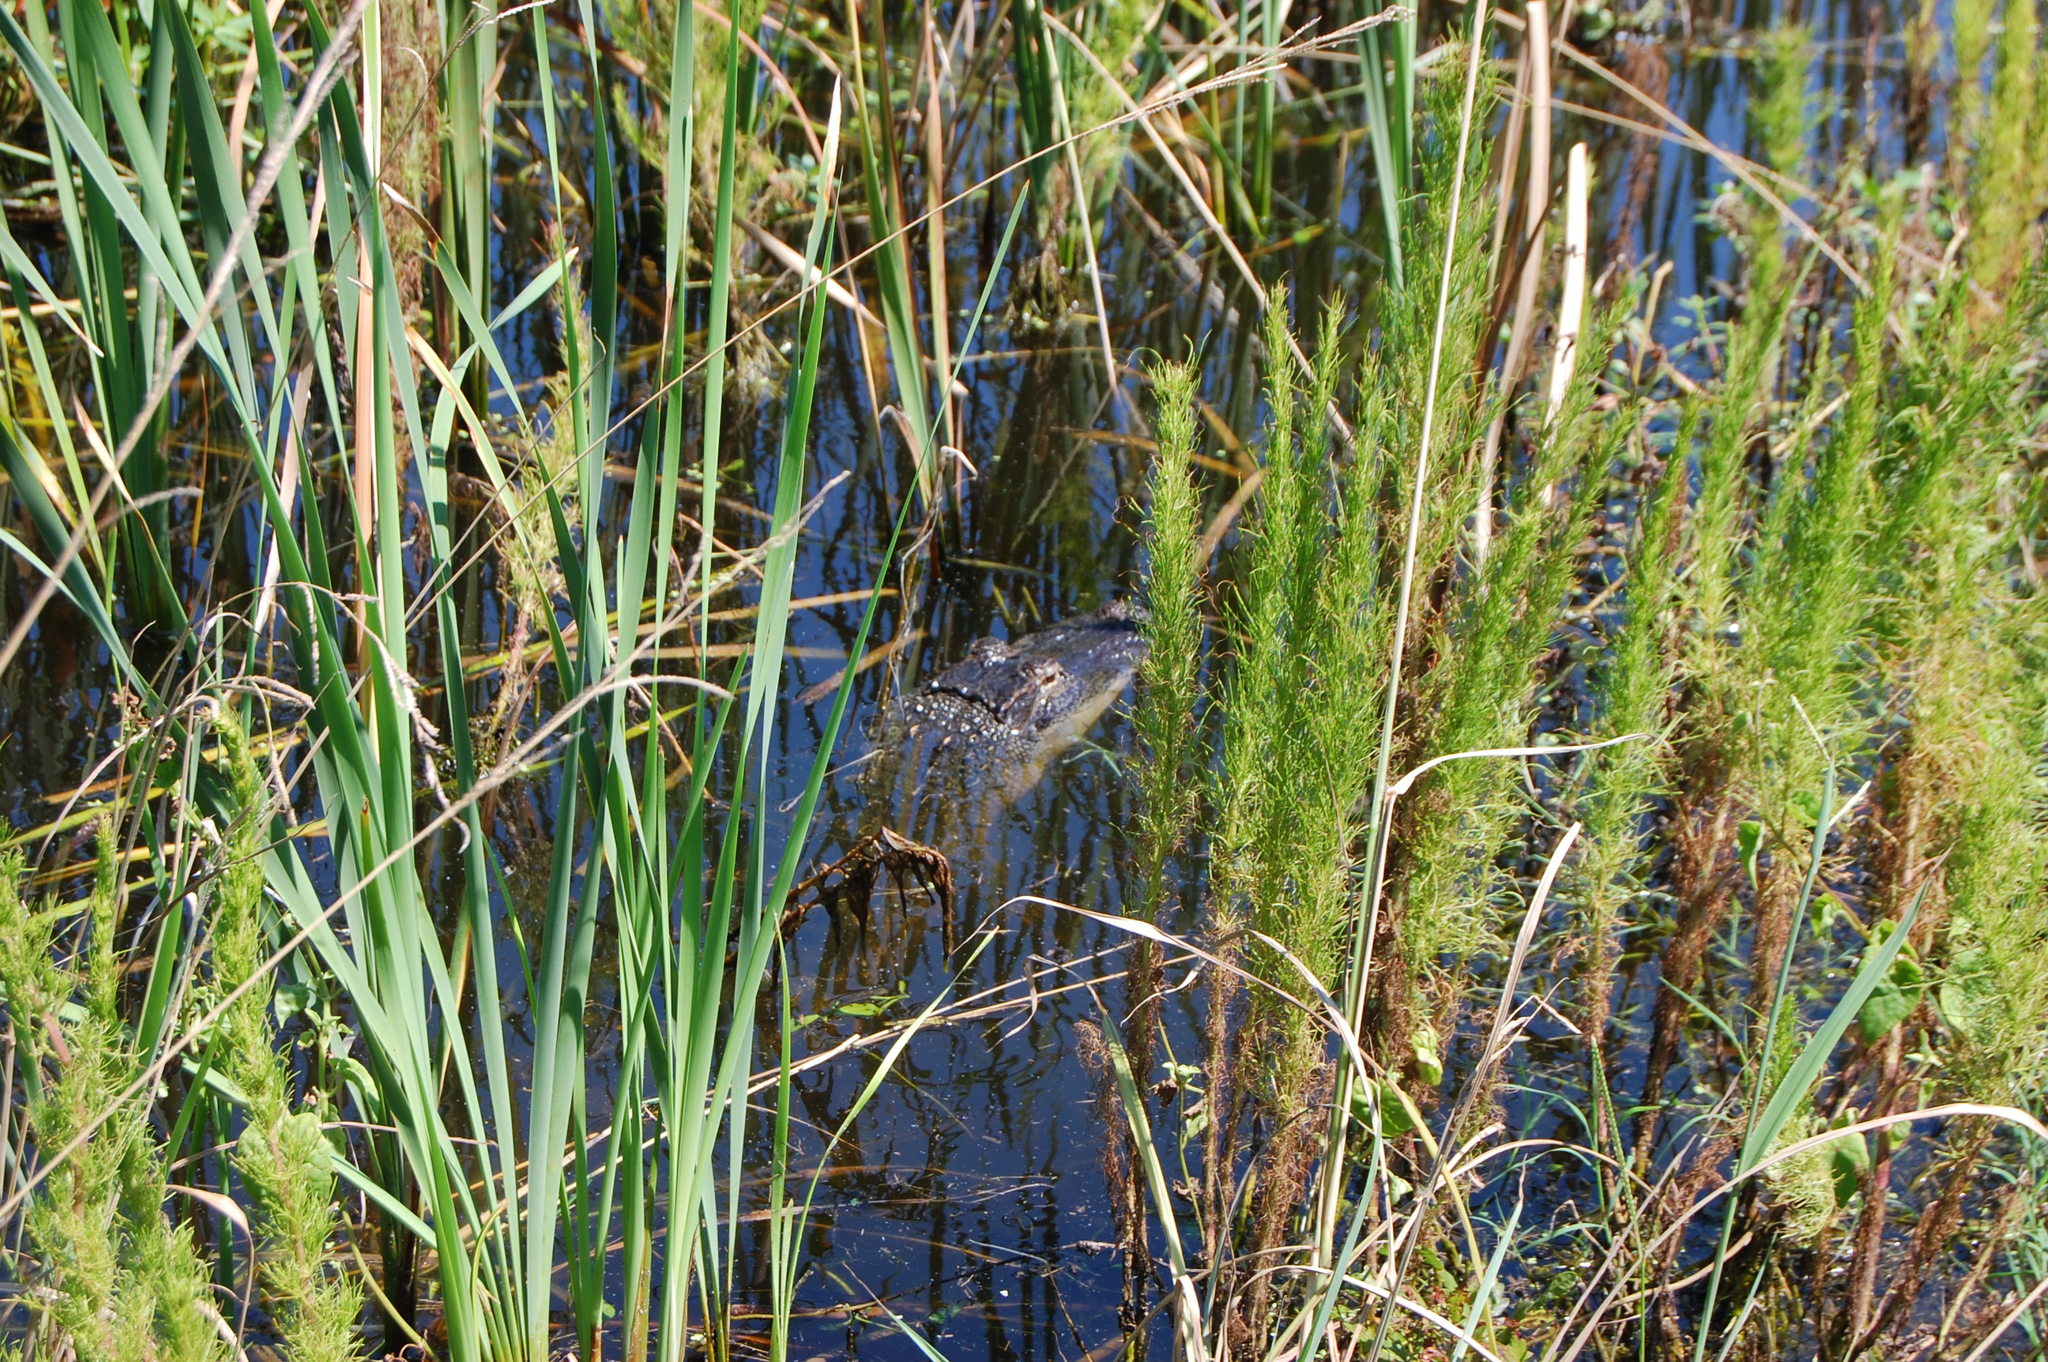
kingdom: Animalia
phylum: Chordata
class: Crocodylia
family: Alligatoridae
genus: Alligator
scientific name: Alligator mississippiensis
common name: American alligator
